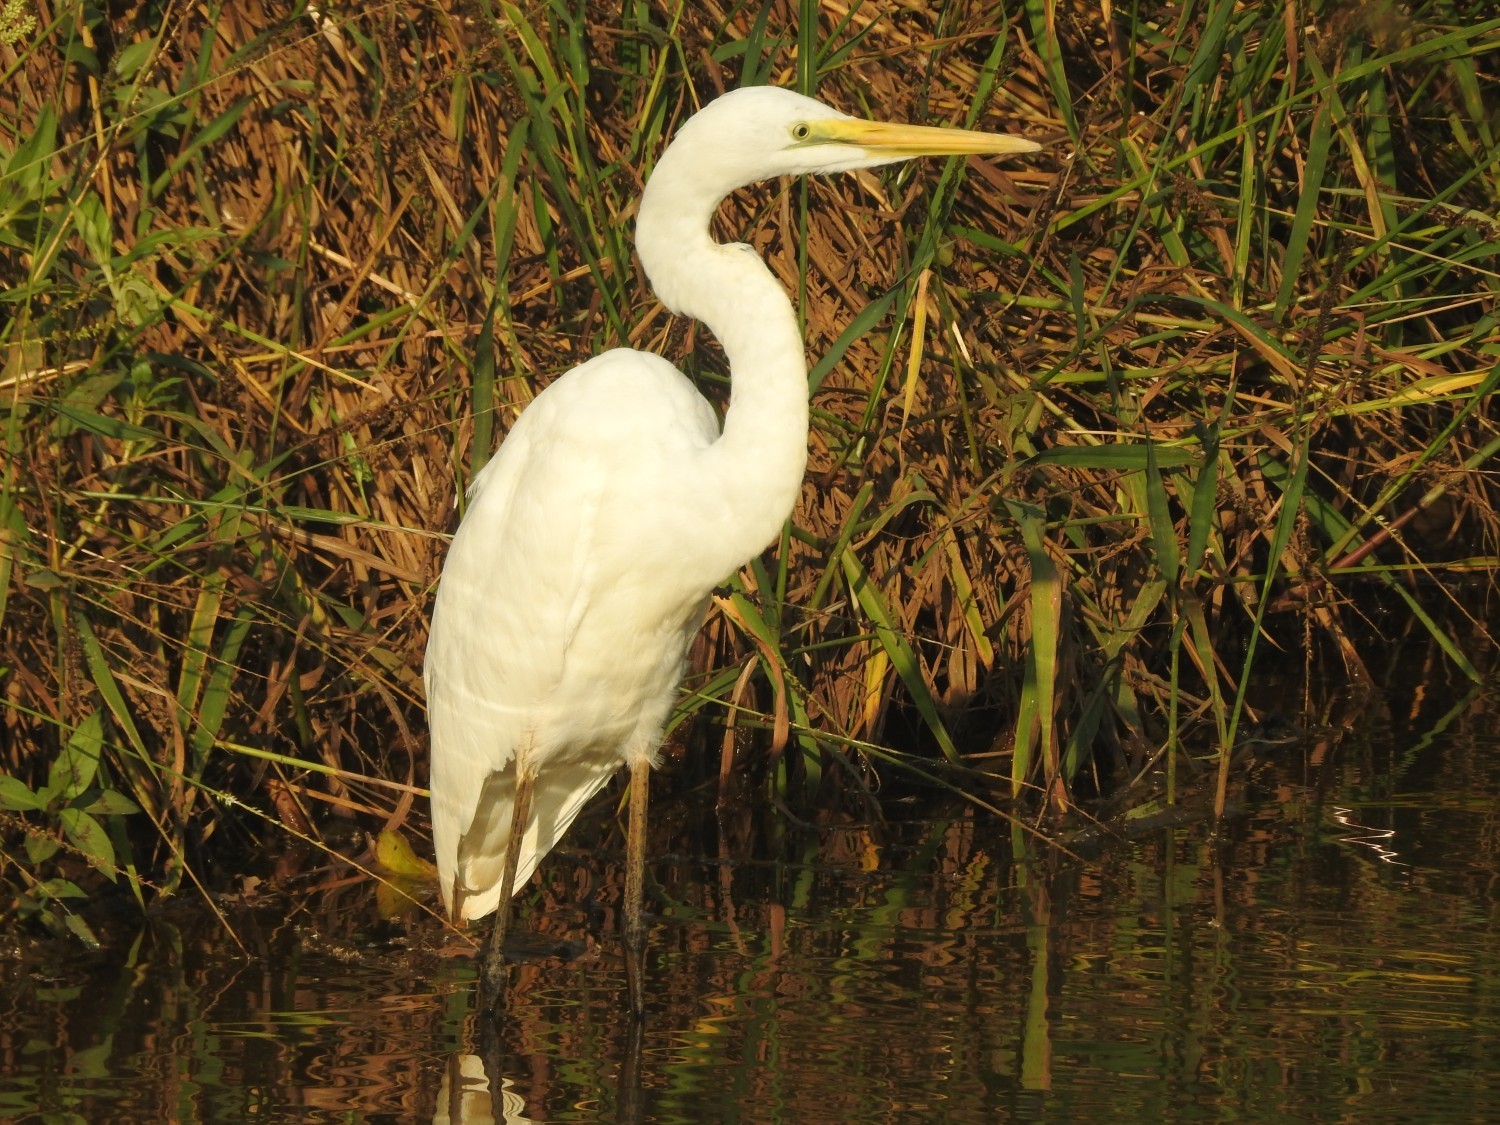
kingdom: Animalia
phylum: Chordata
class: Aves
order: Pelecaniformes
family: Ardeidae
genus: Ardea
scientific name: Ardea alba
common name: Great egret
